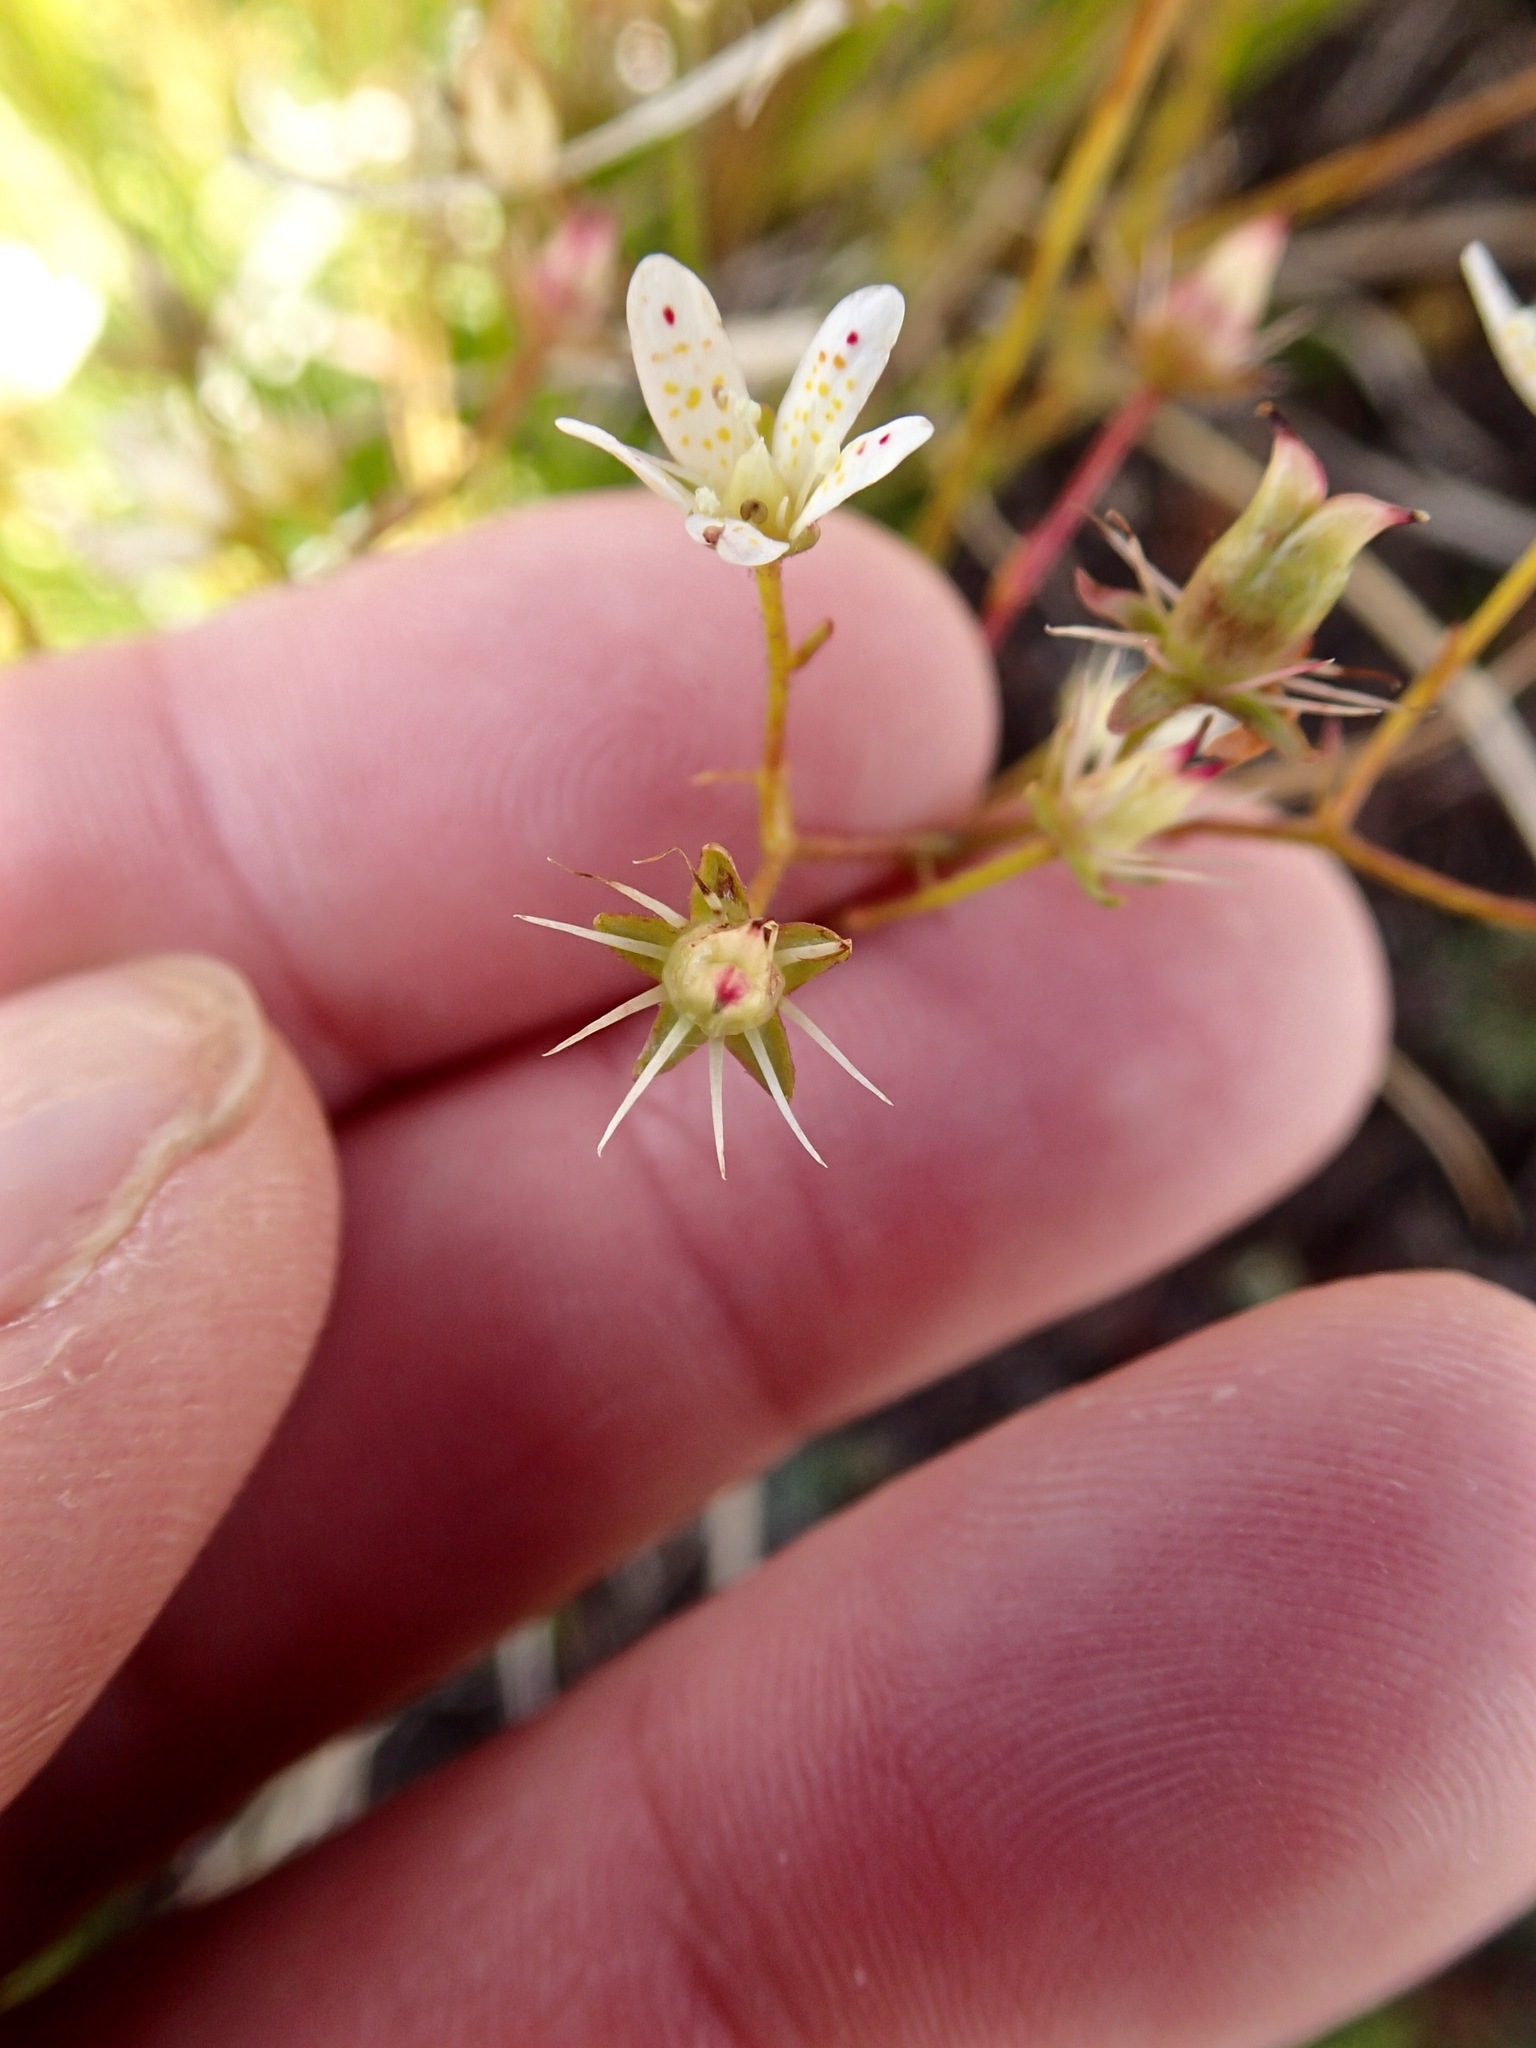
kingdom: Plantae
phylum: Tracheophyta
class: Magnoliopsida
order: Saxifragales
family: Saxifragaceae
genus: Saxifraga
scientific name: Saxifraga bronchialis
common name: Matted saxifrage
